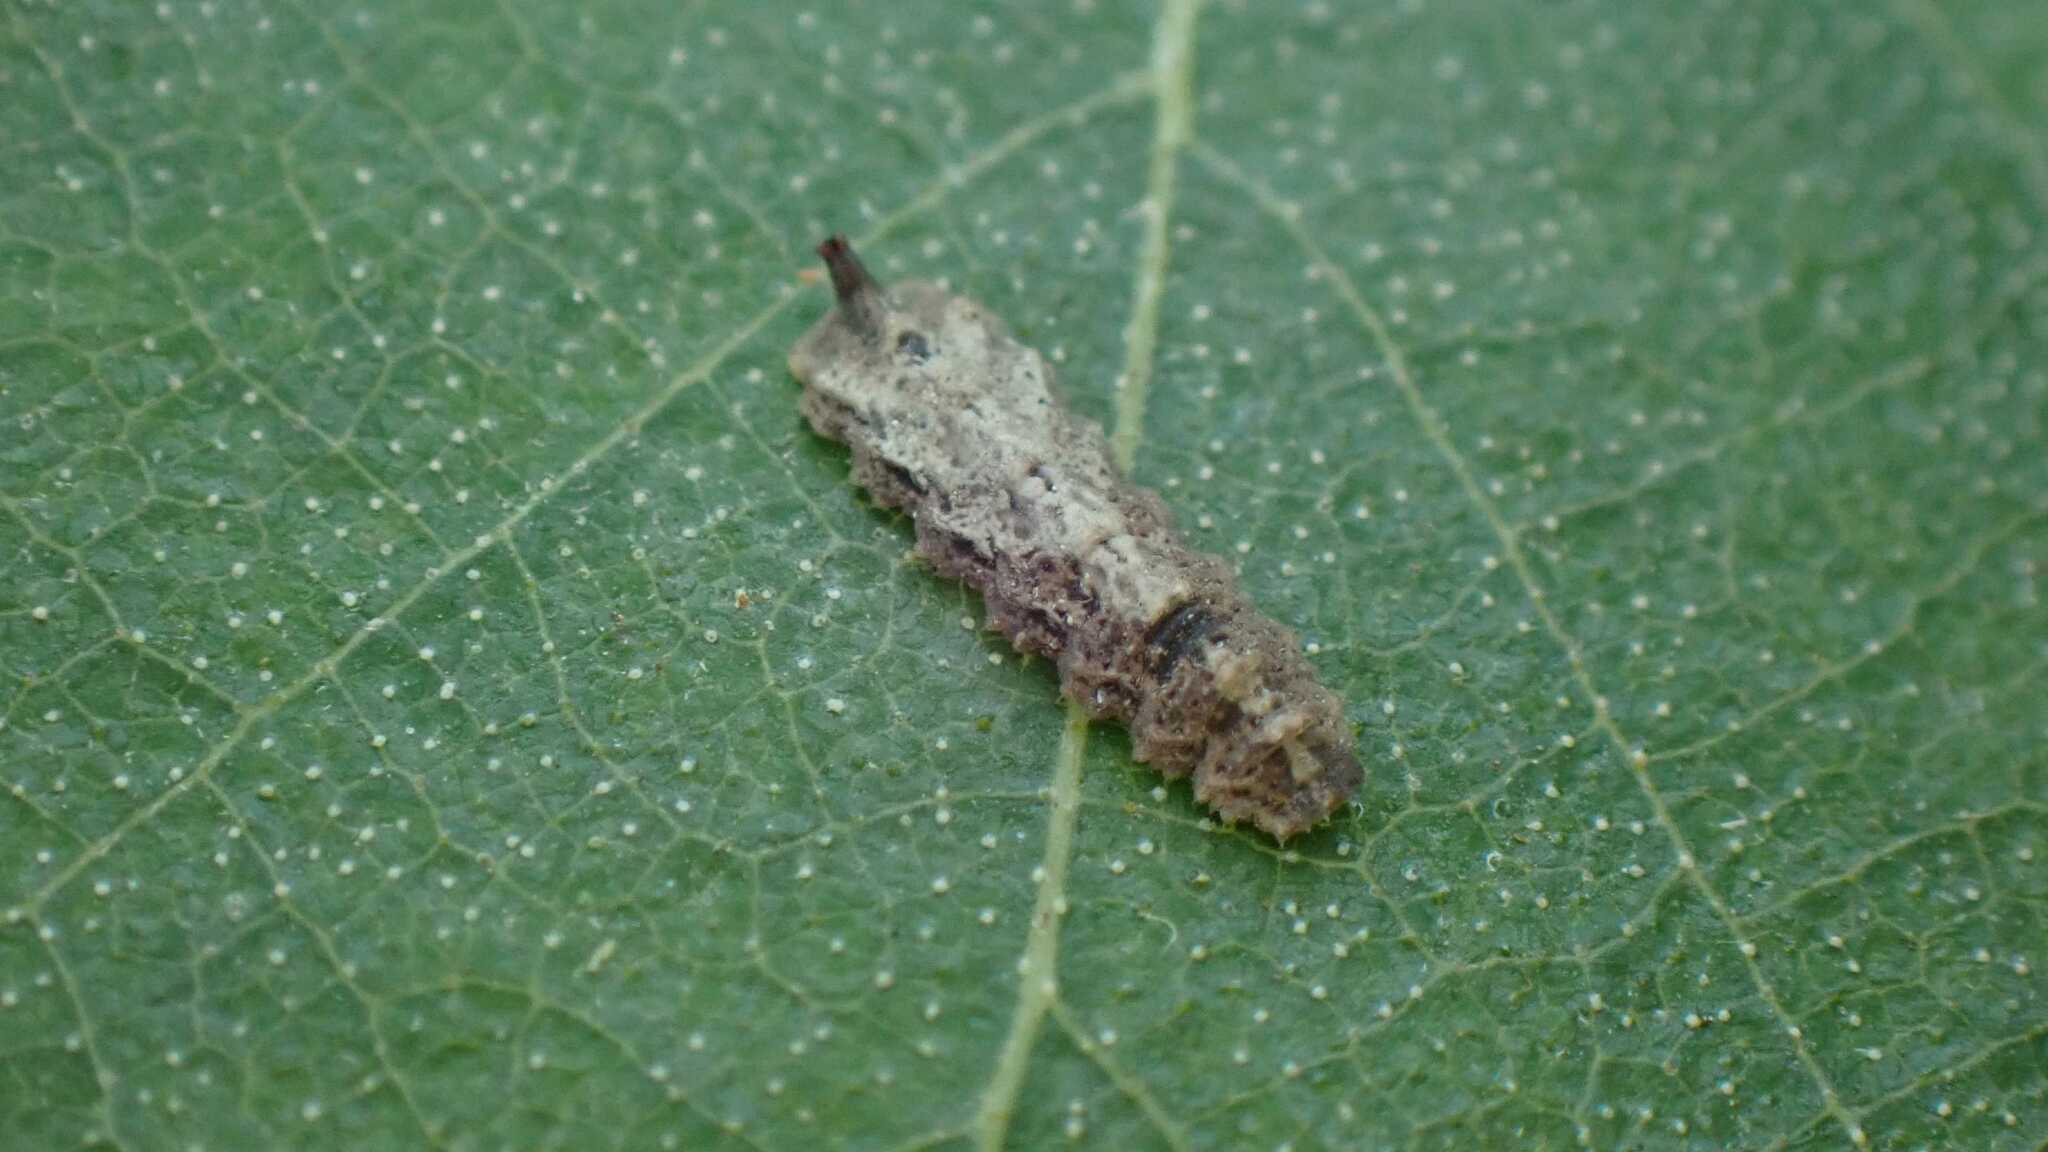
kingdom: Animalia
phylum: Arthropoda
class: Insecta
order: Diptera
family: Syrphidae
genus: Meligramma
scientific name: Meligramma triangulifera
